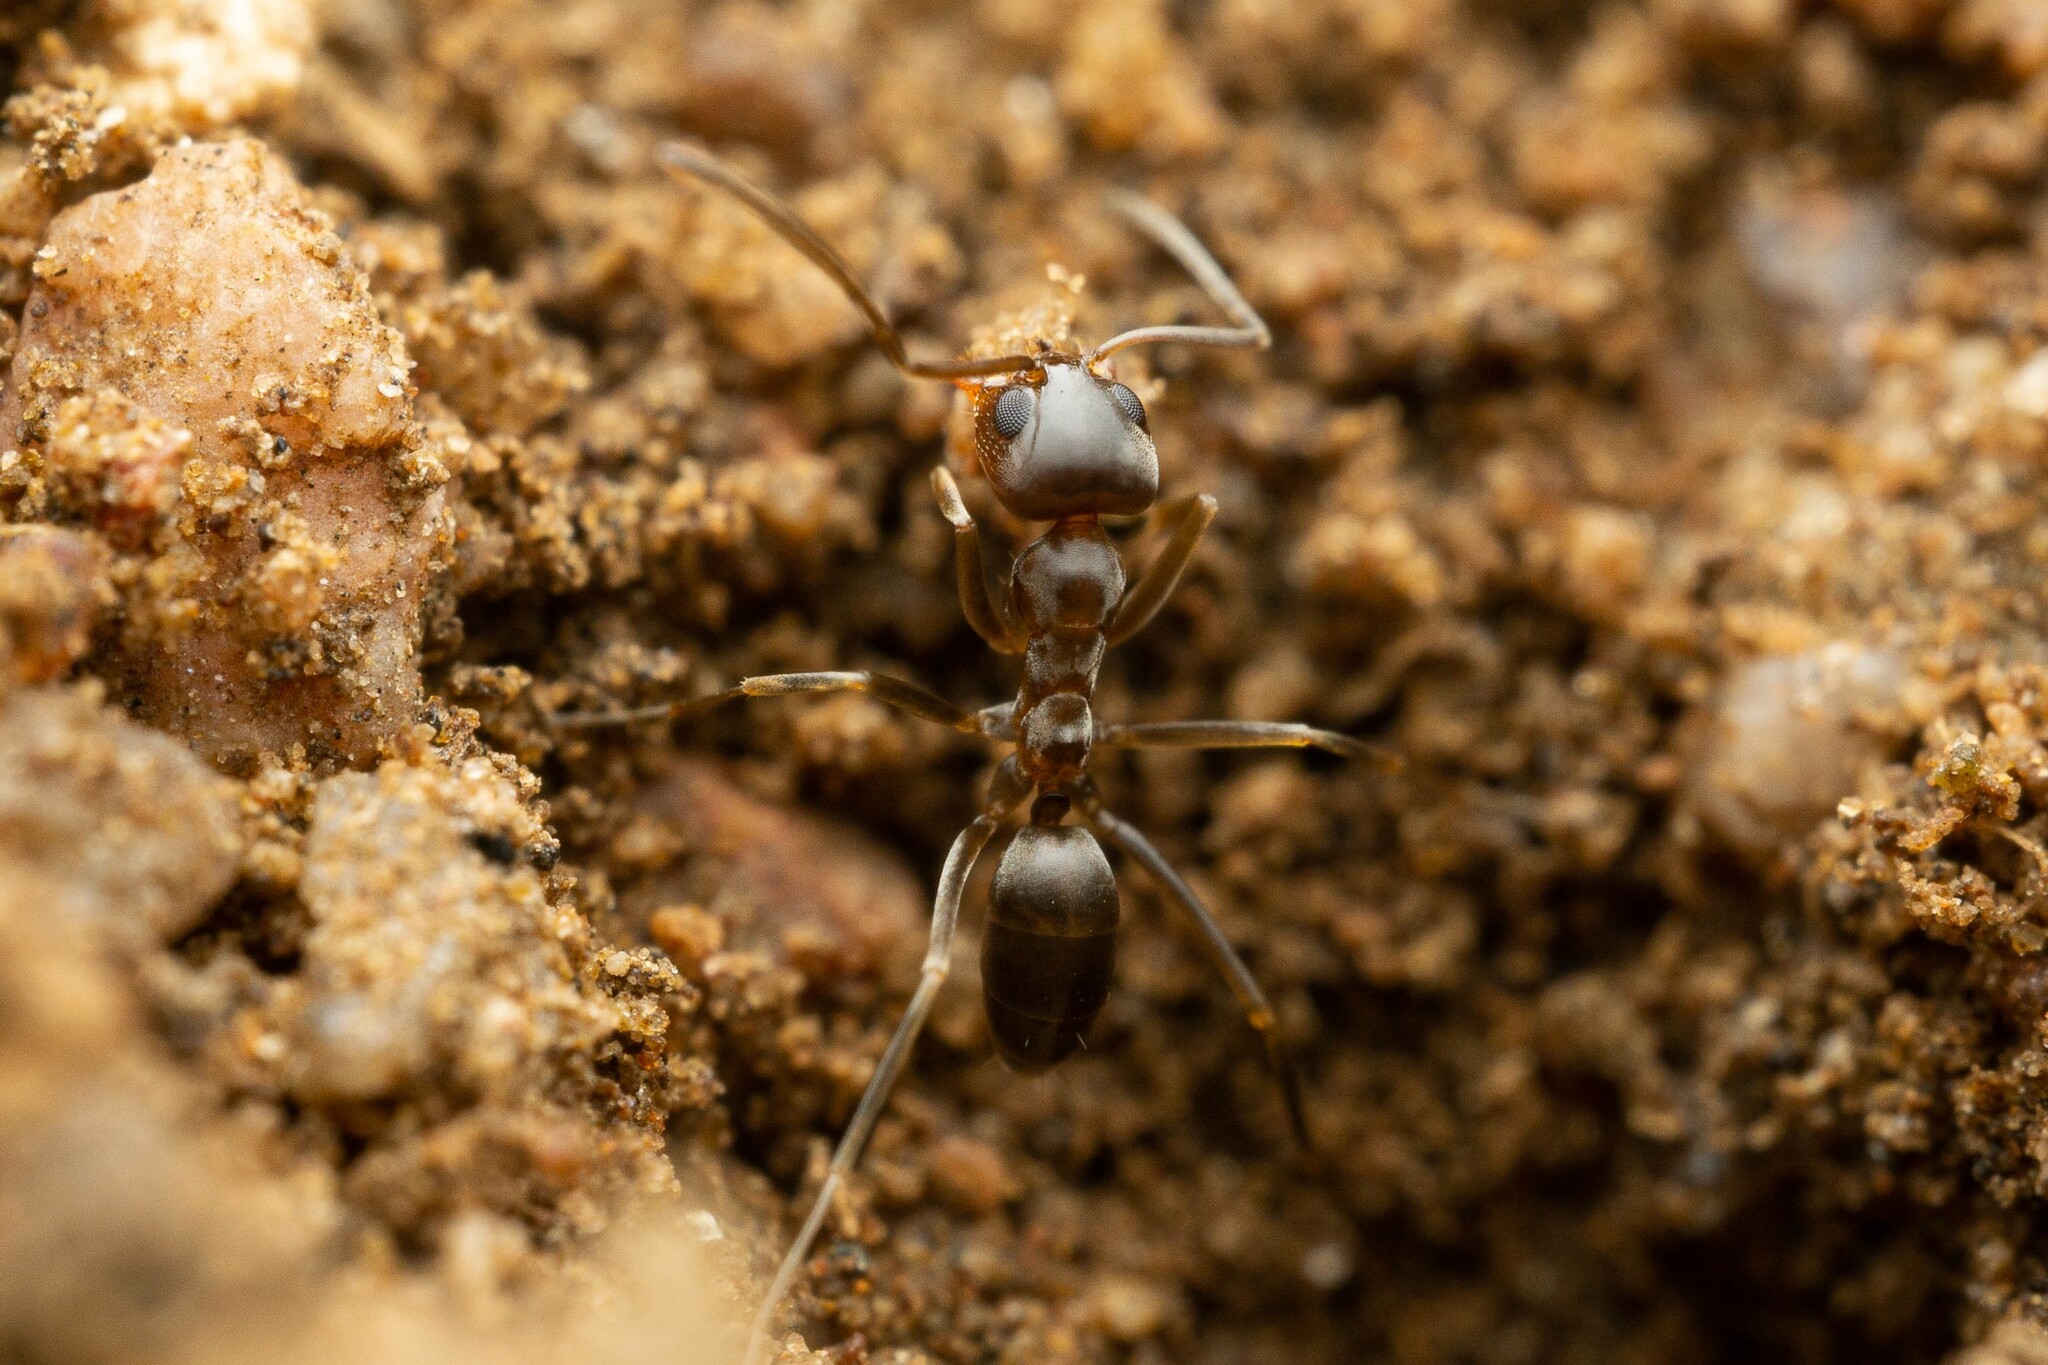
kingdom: Animalia
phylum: Arthropoda
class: Insecta
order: Hymenoptera
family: Formicidae
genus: Dorymyrmex
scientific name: Dorymyrmex
